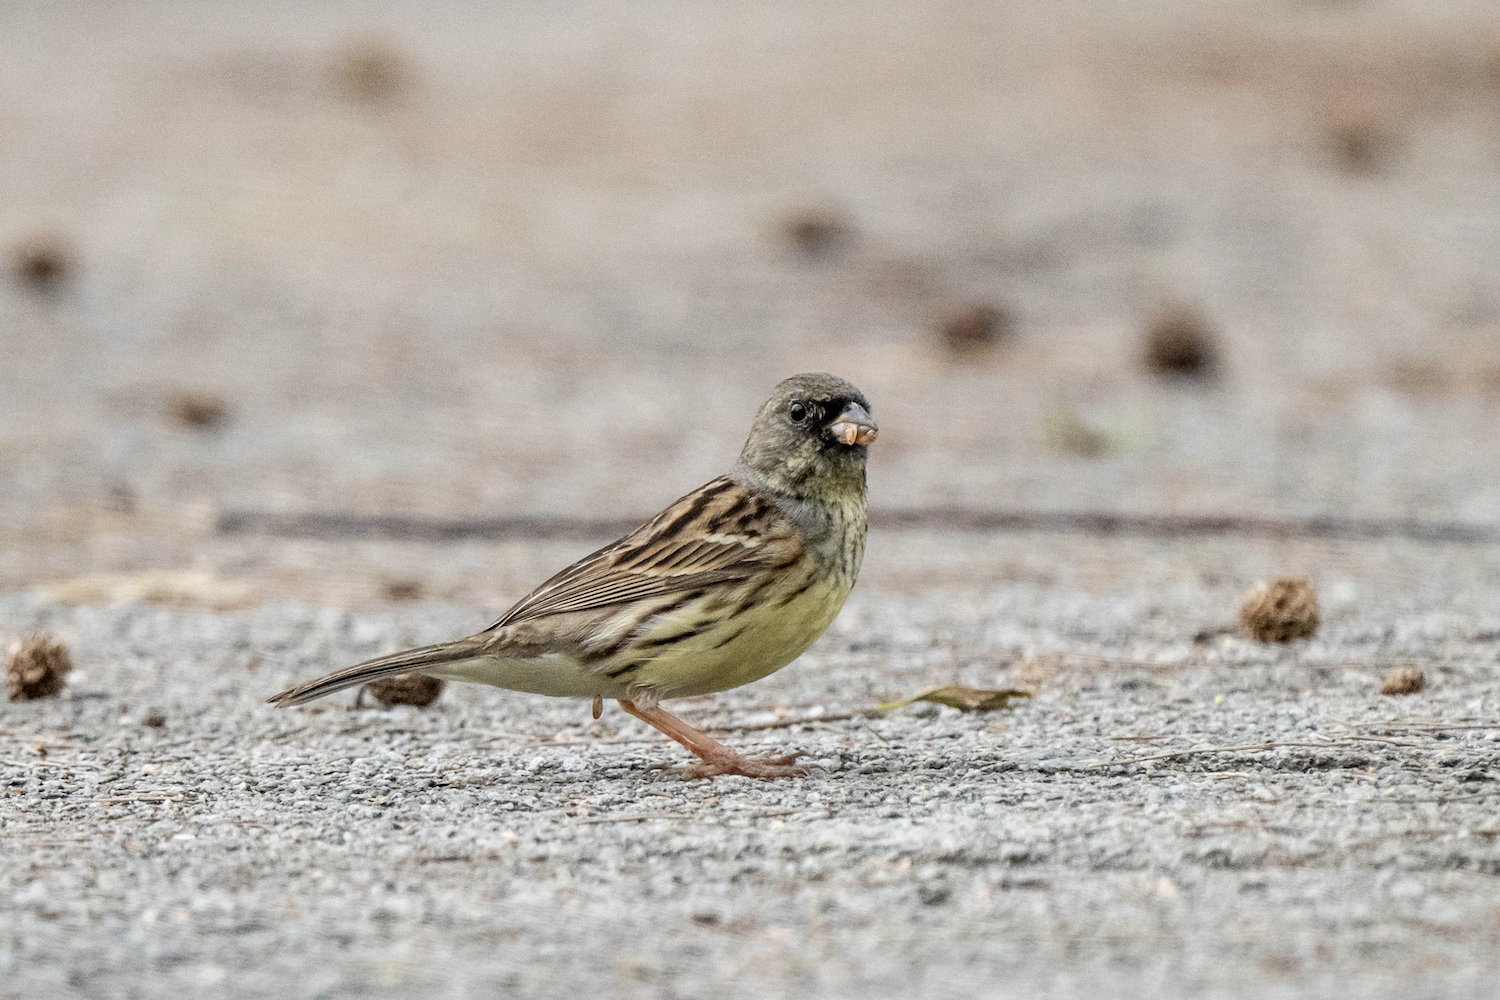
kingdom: Animalia
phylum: Chordata
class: Aves
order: Passeriformes
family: Emberizidae
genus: Emberiza
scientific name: Emberiza spodocephala
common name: Black-faced bunting
